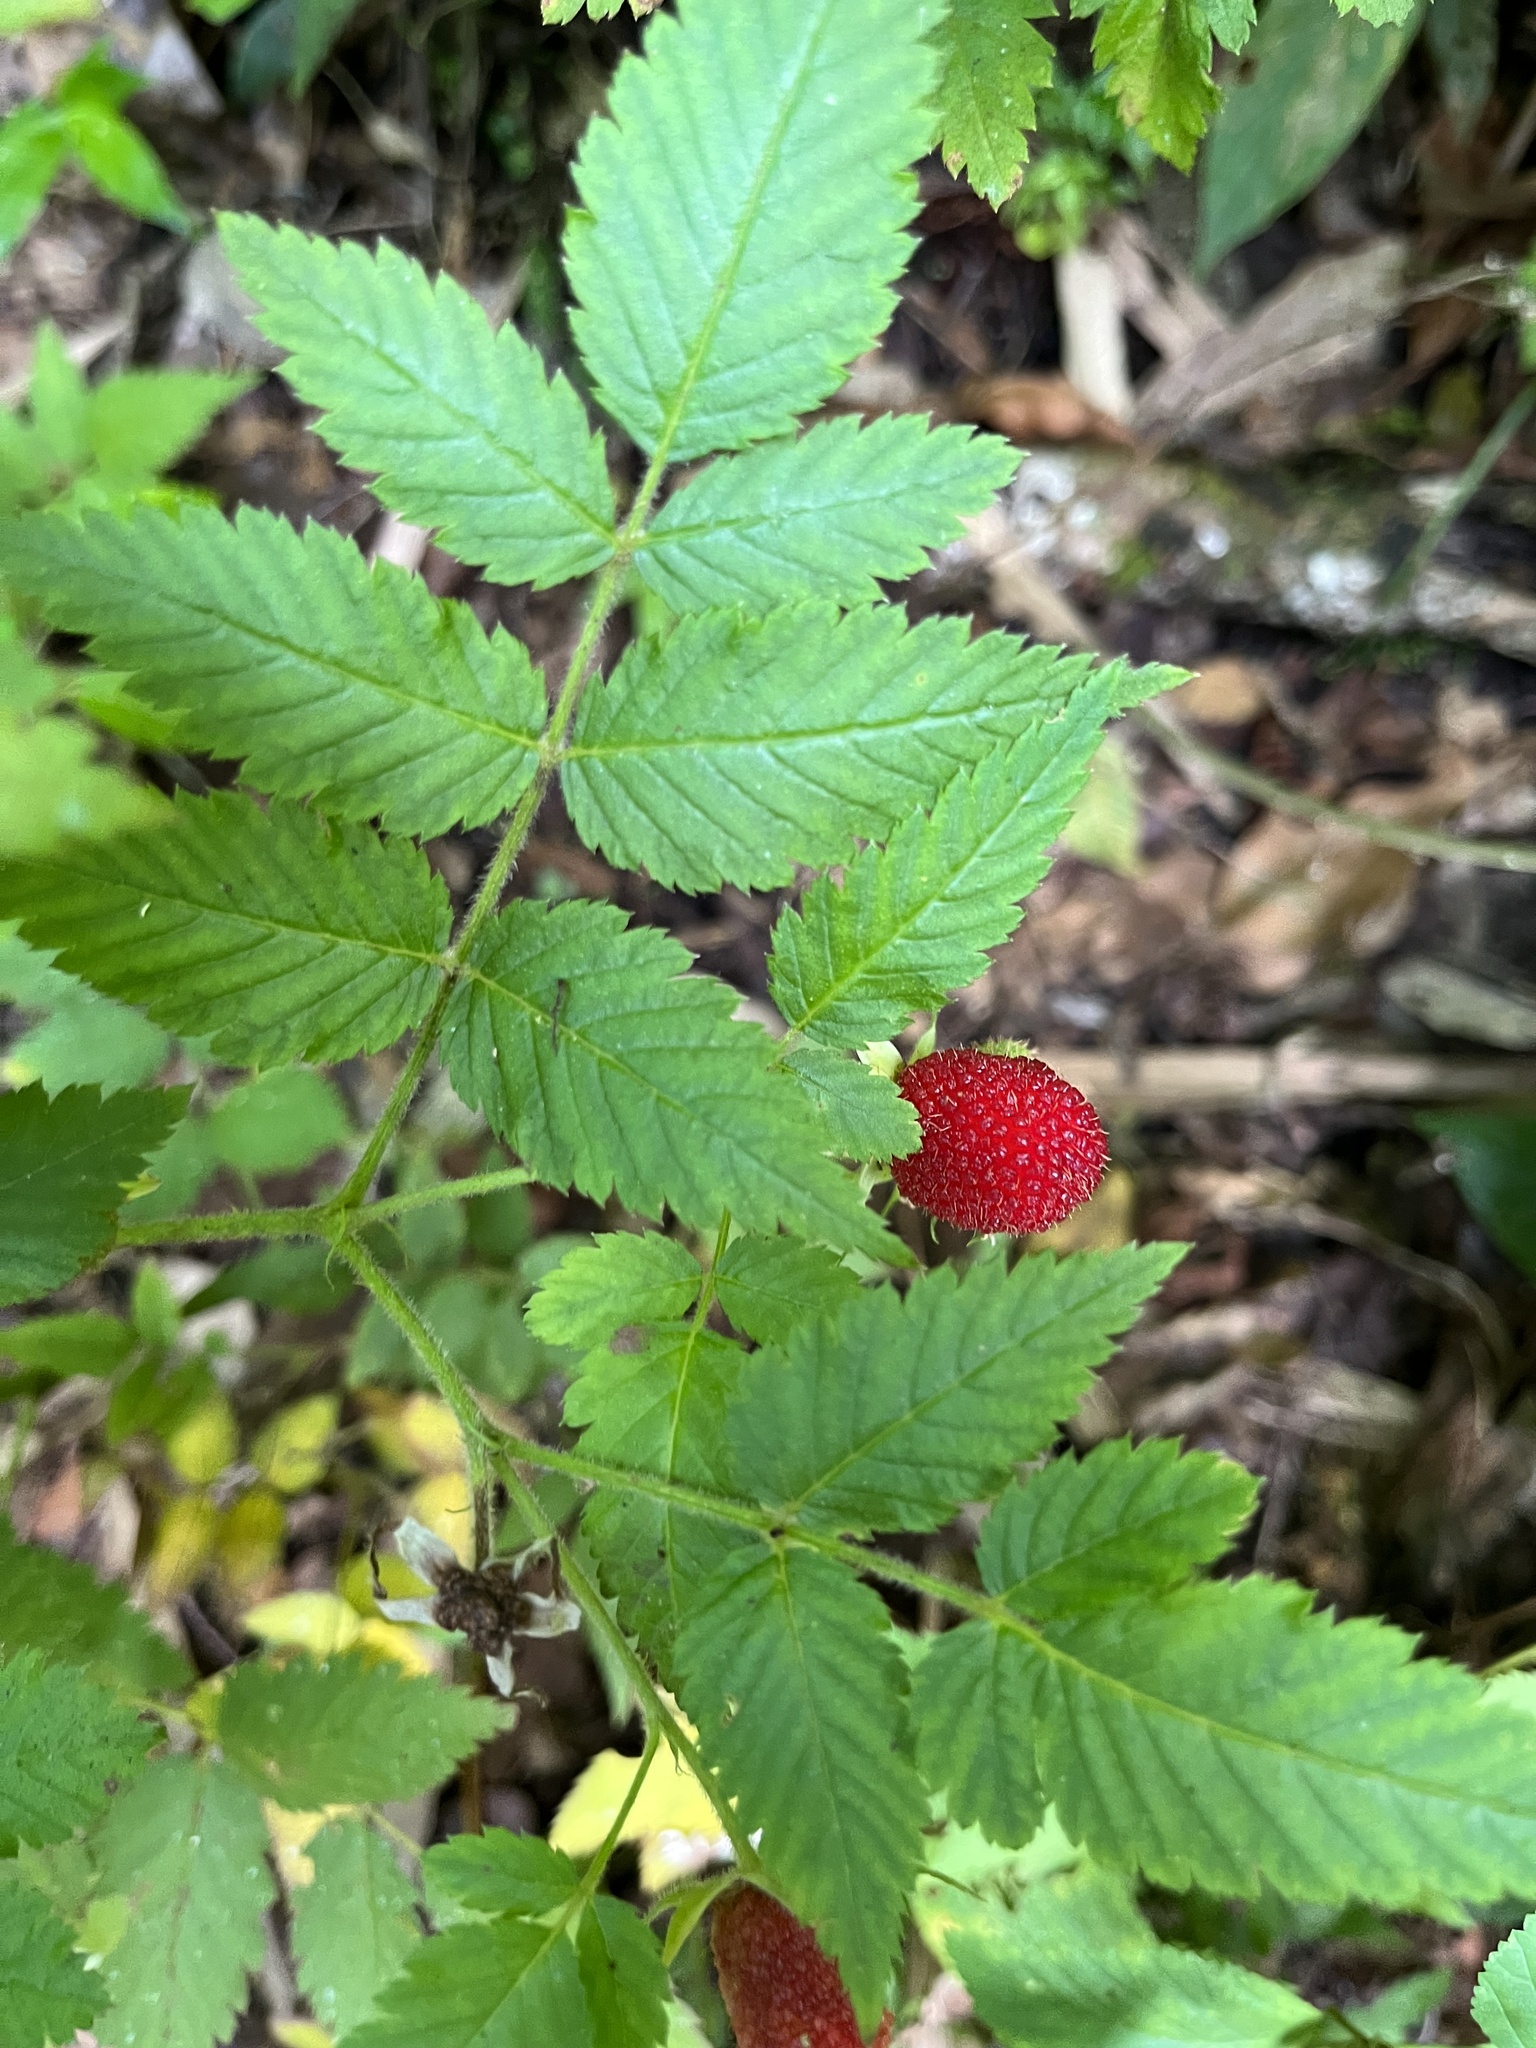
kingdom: Plantae
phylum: Tracheophyta
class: Magnoliopsida
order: Rosales
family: Rosaceae
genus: Rubus
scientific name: Rubus rosifolius
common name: Roseleaf raspberry
